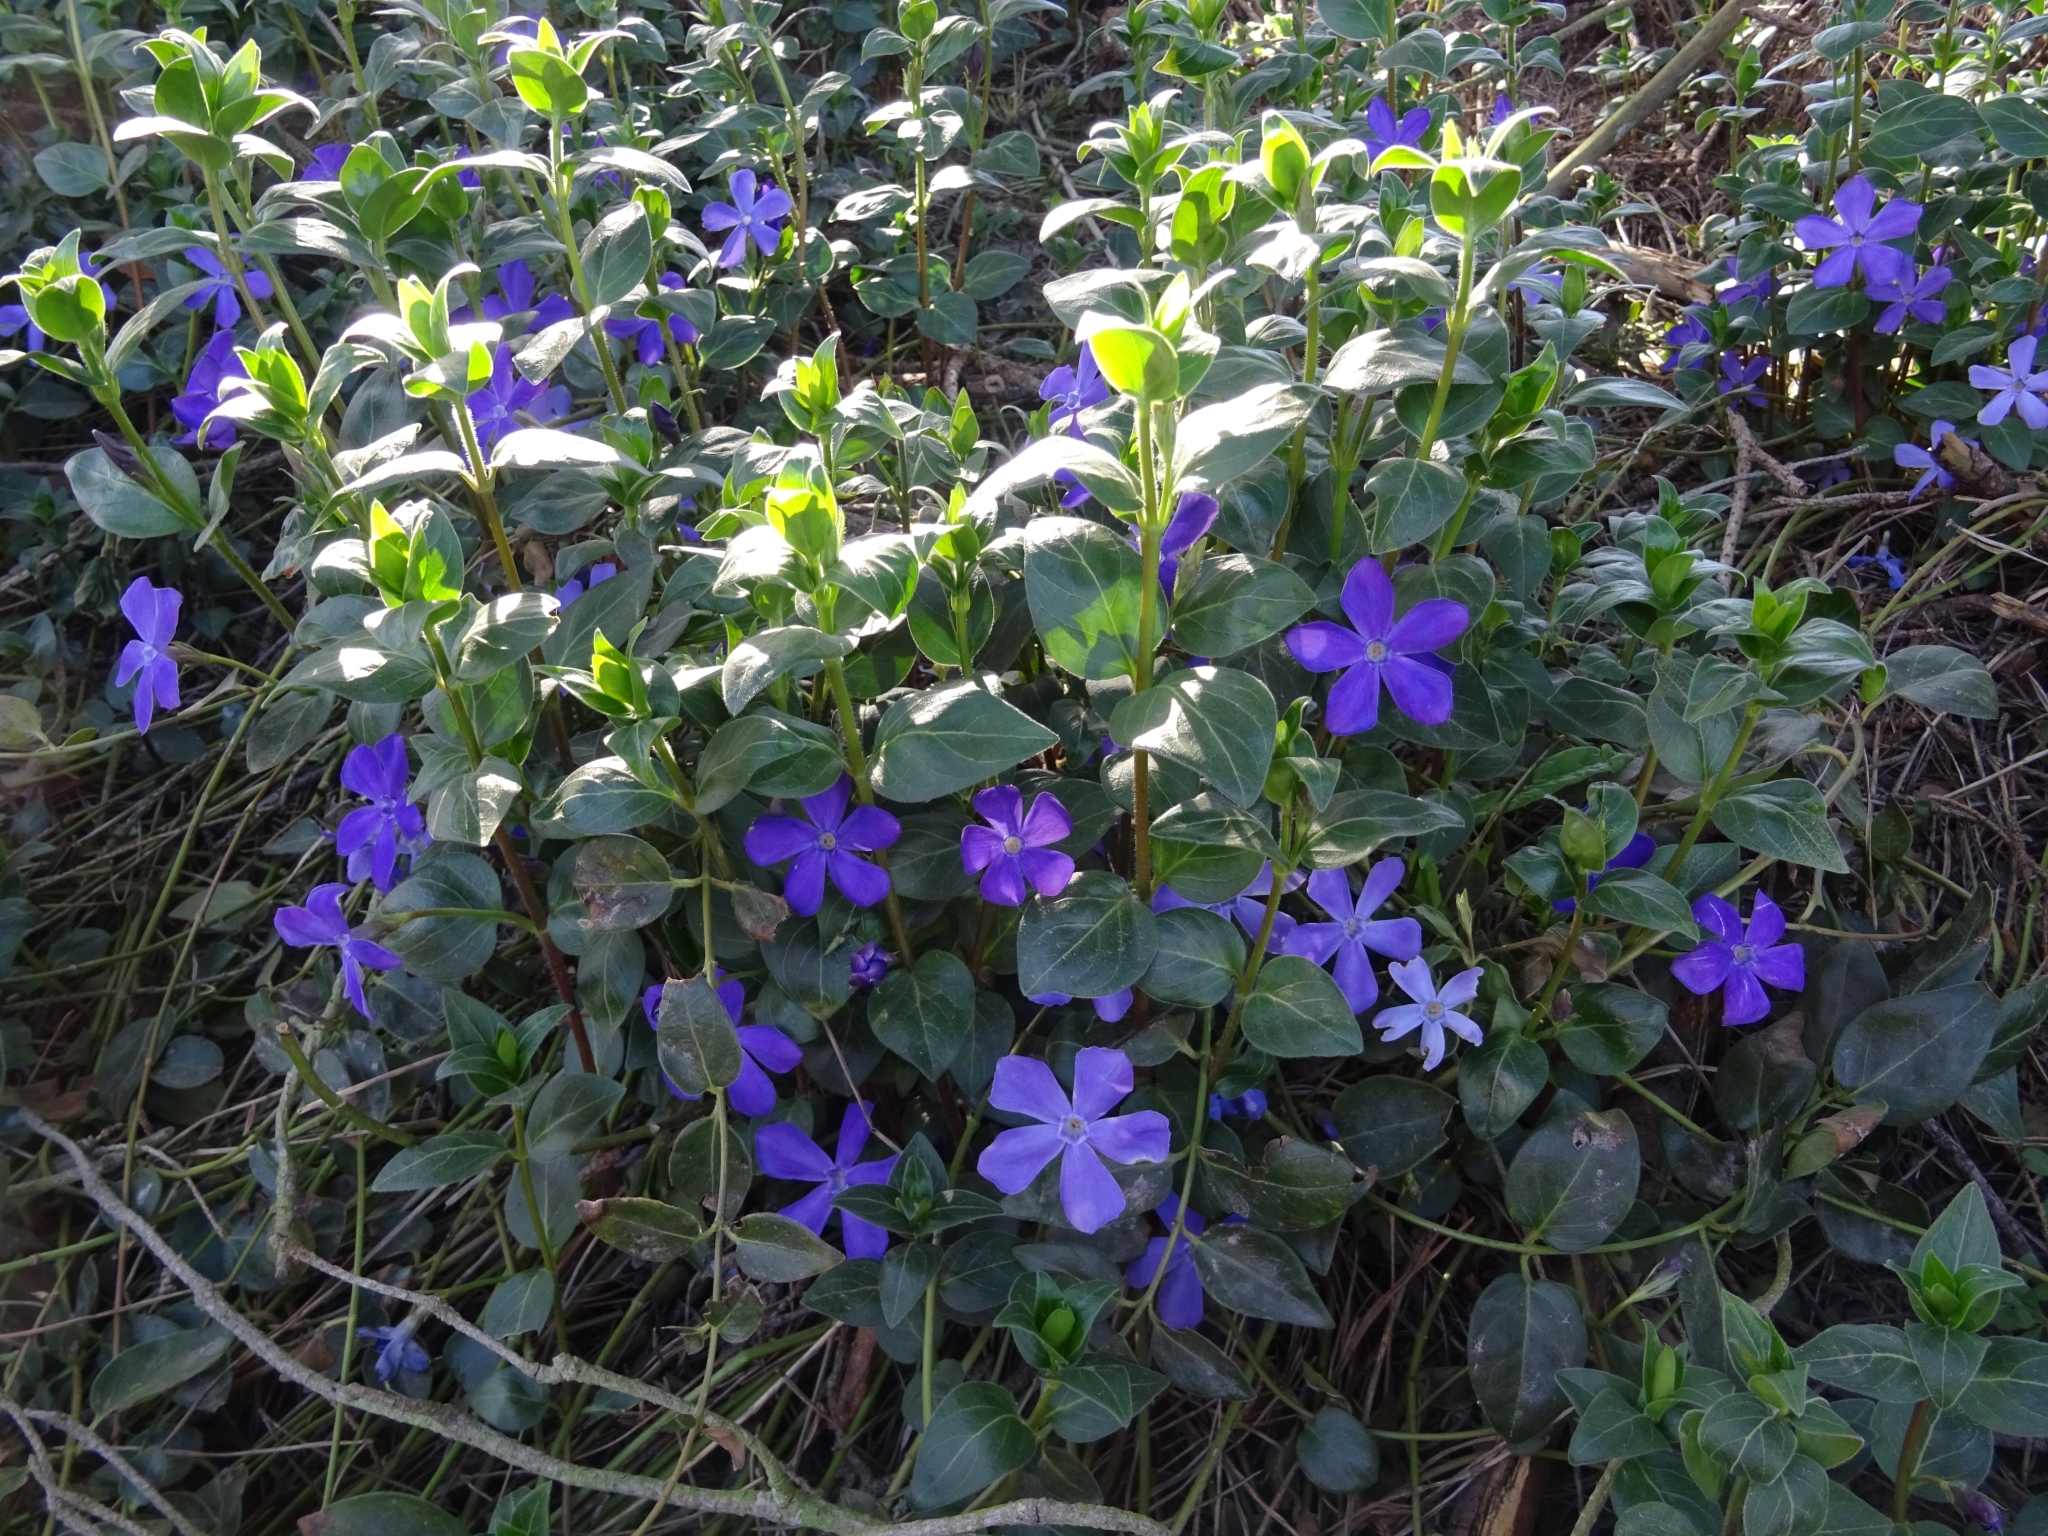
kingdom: Plantae
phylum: Tracheophyta
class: Magnoliopsida
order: Gentianales
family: Apocynaceae
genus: Vinca
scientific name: Vinca major
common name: Greater periwinkle
